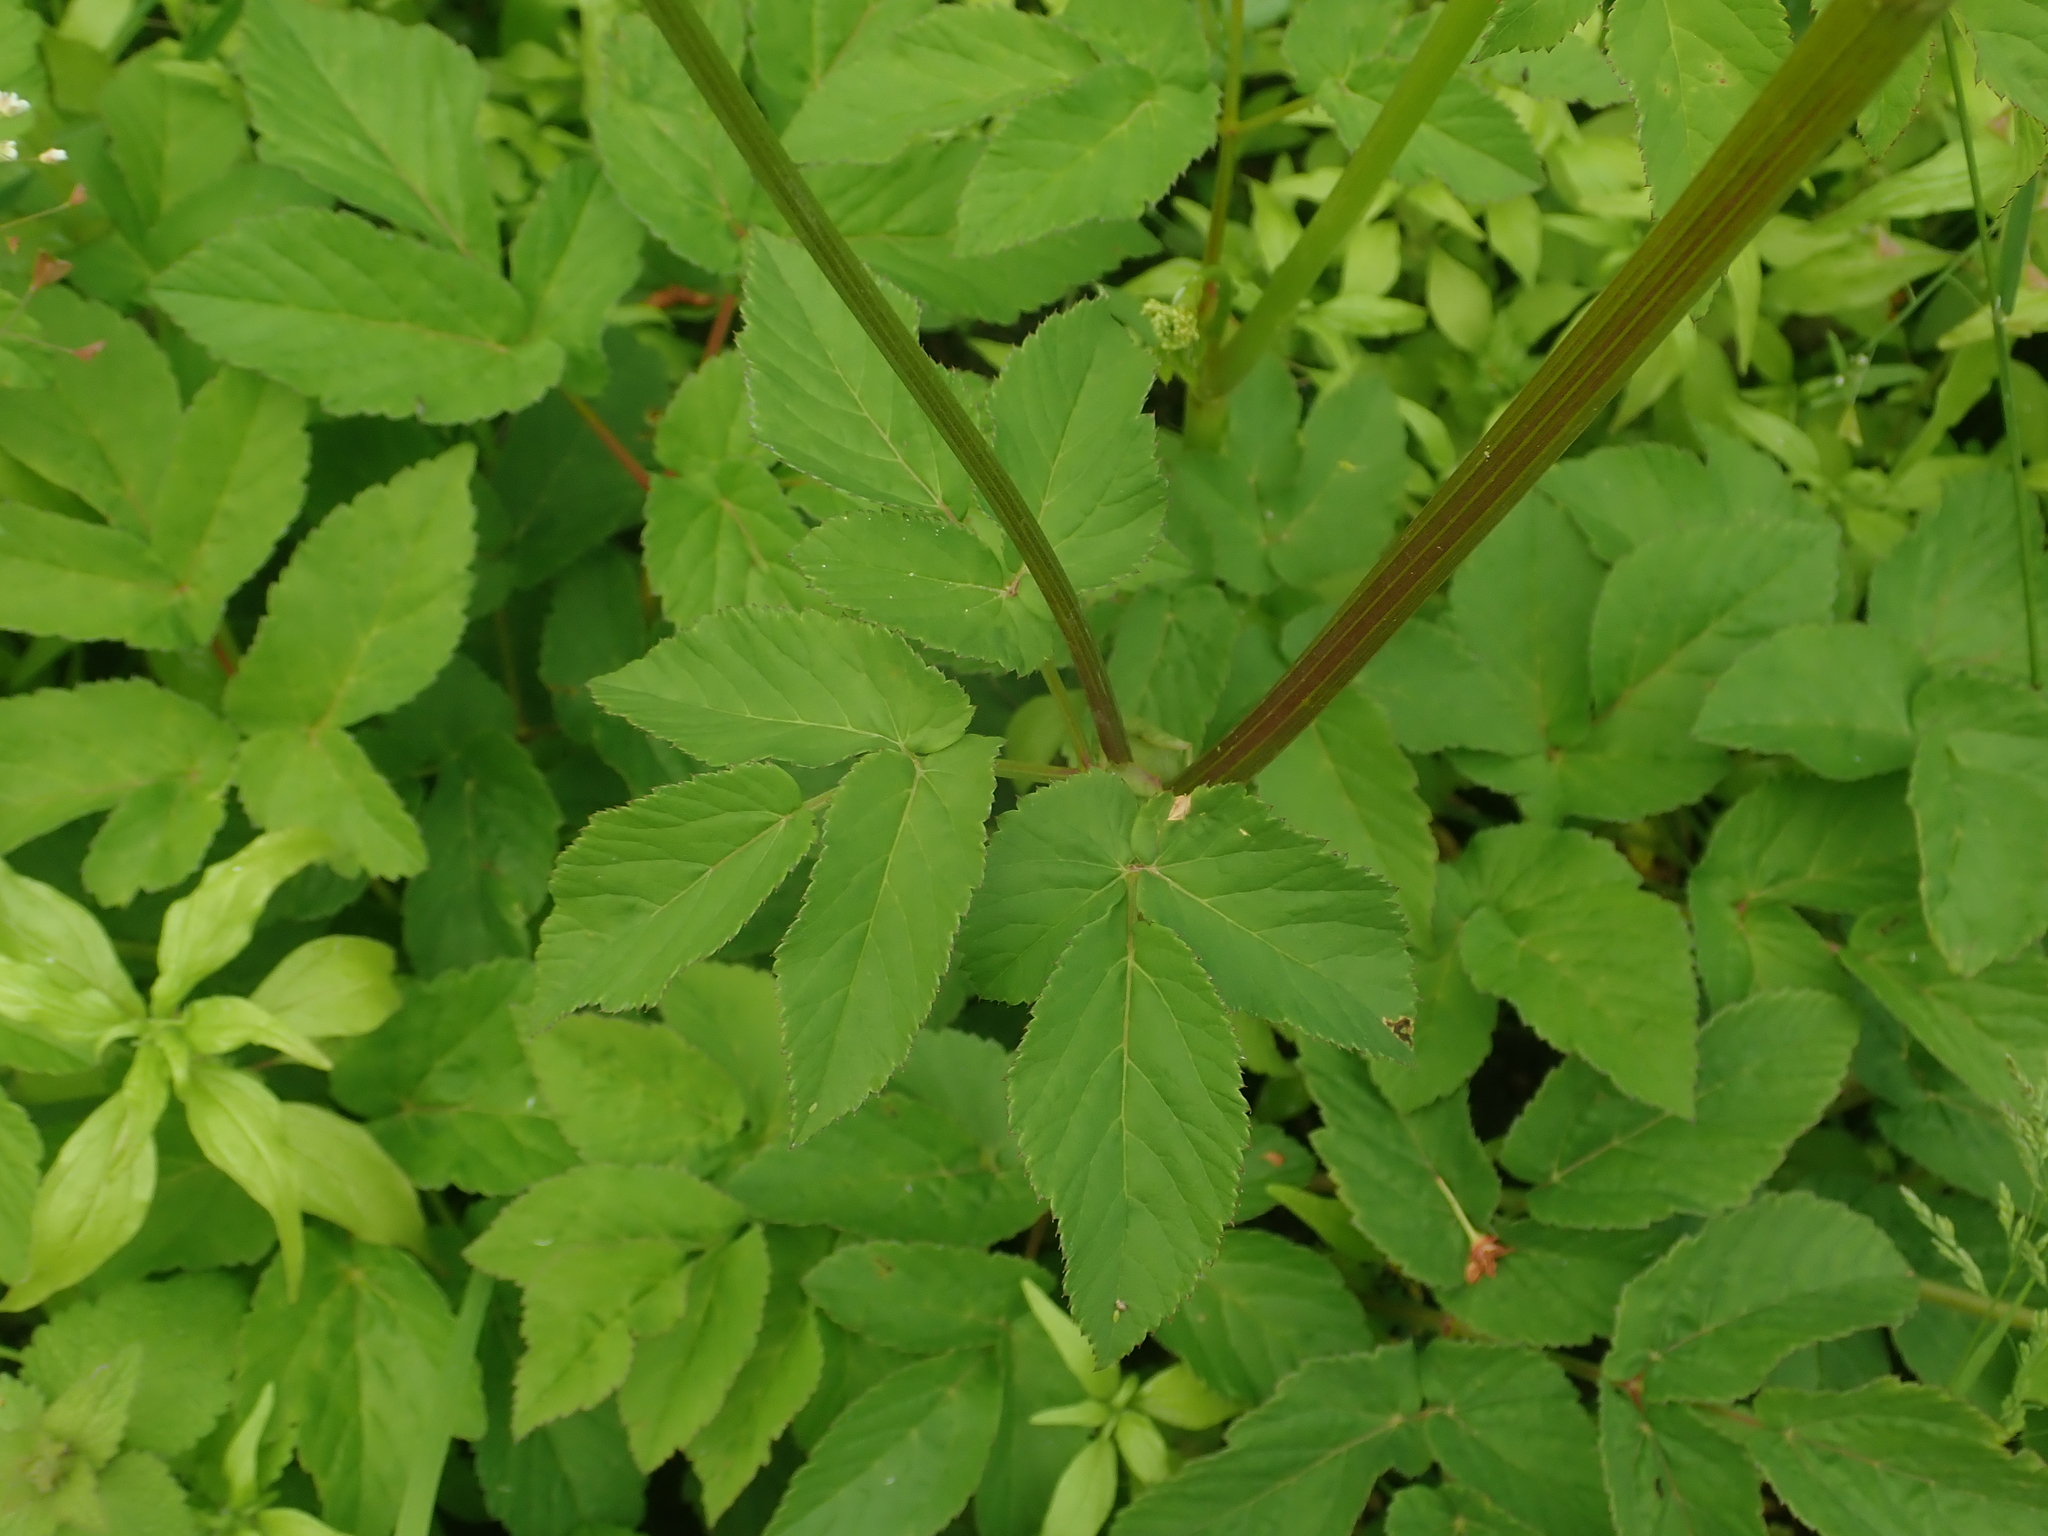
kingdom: Plantae
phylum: Tracheophyta
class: Magnoliopsida
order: Apiales
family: Apiaceae
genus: Aegopodium
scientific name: Aegopodium podagraria
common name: Ground-elder
